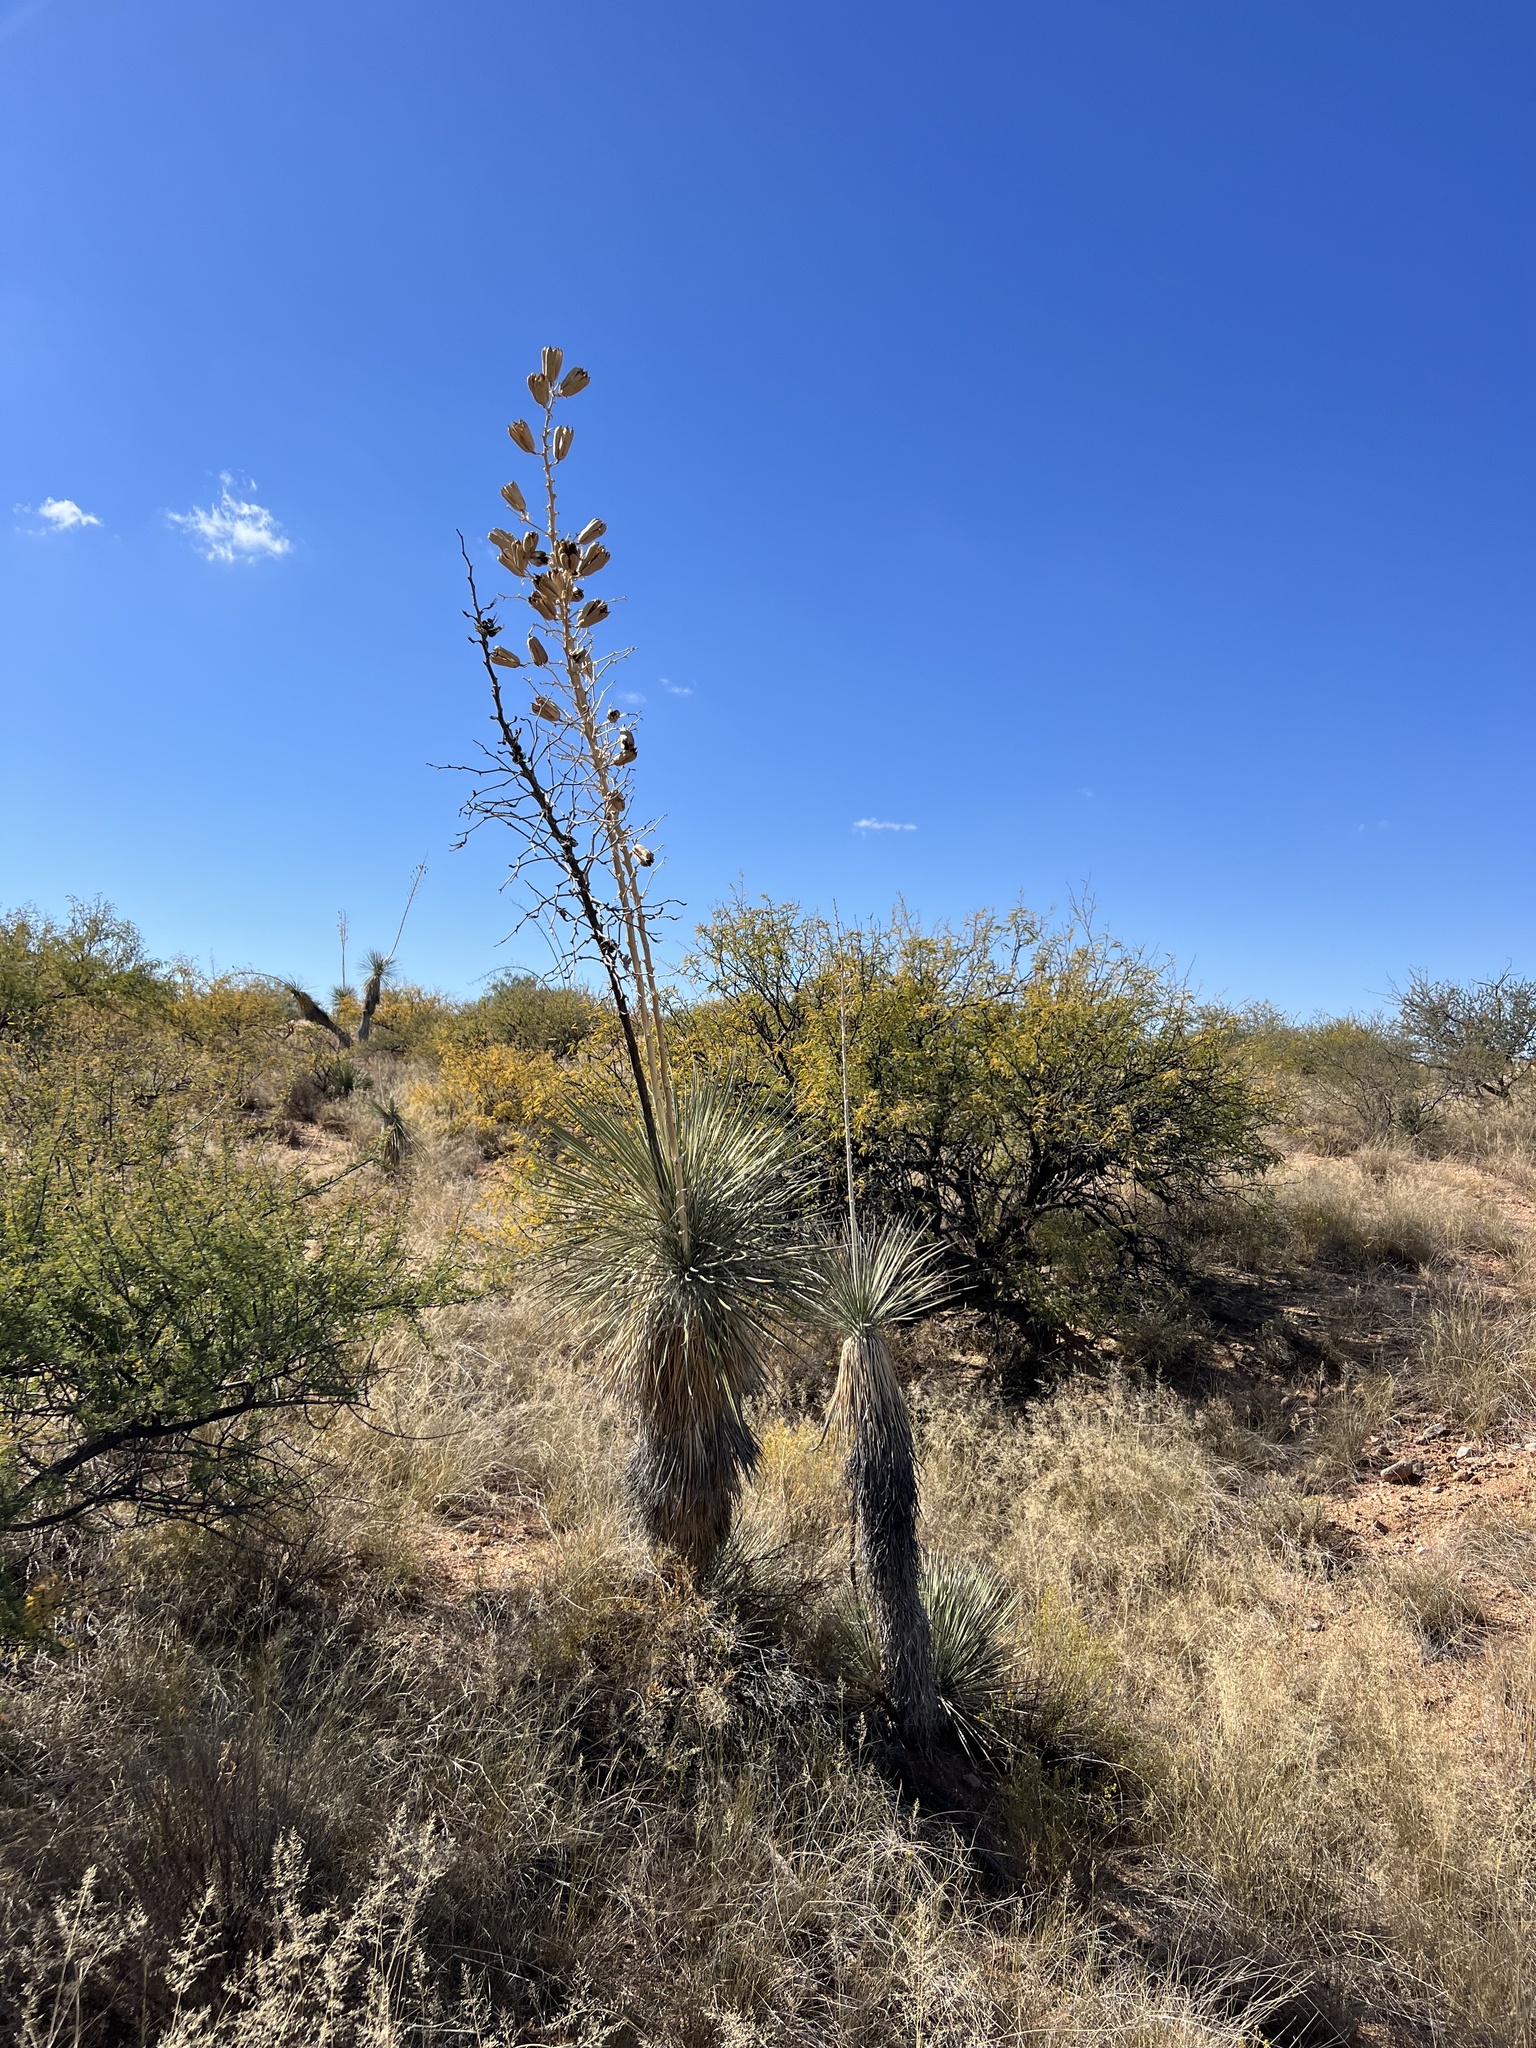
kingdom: Plantae
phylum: Tracheophyta
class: Liliopsida
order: Asparagales
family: Asparagaceae
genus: Yucca
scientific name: Yucca elata
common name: Palmella
